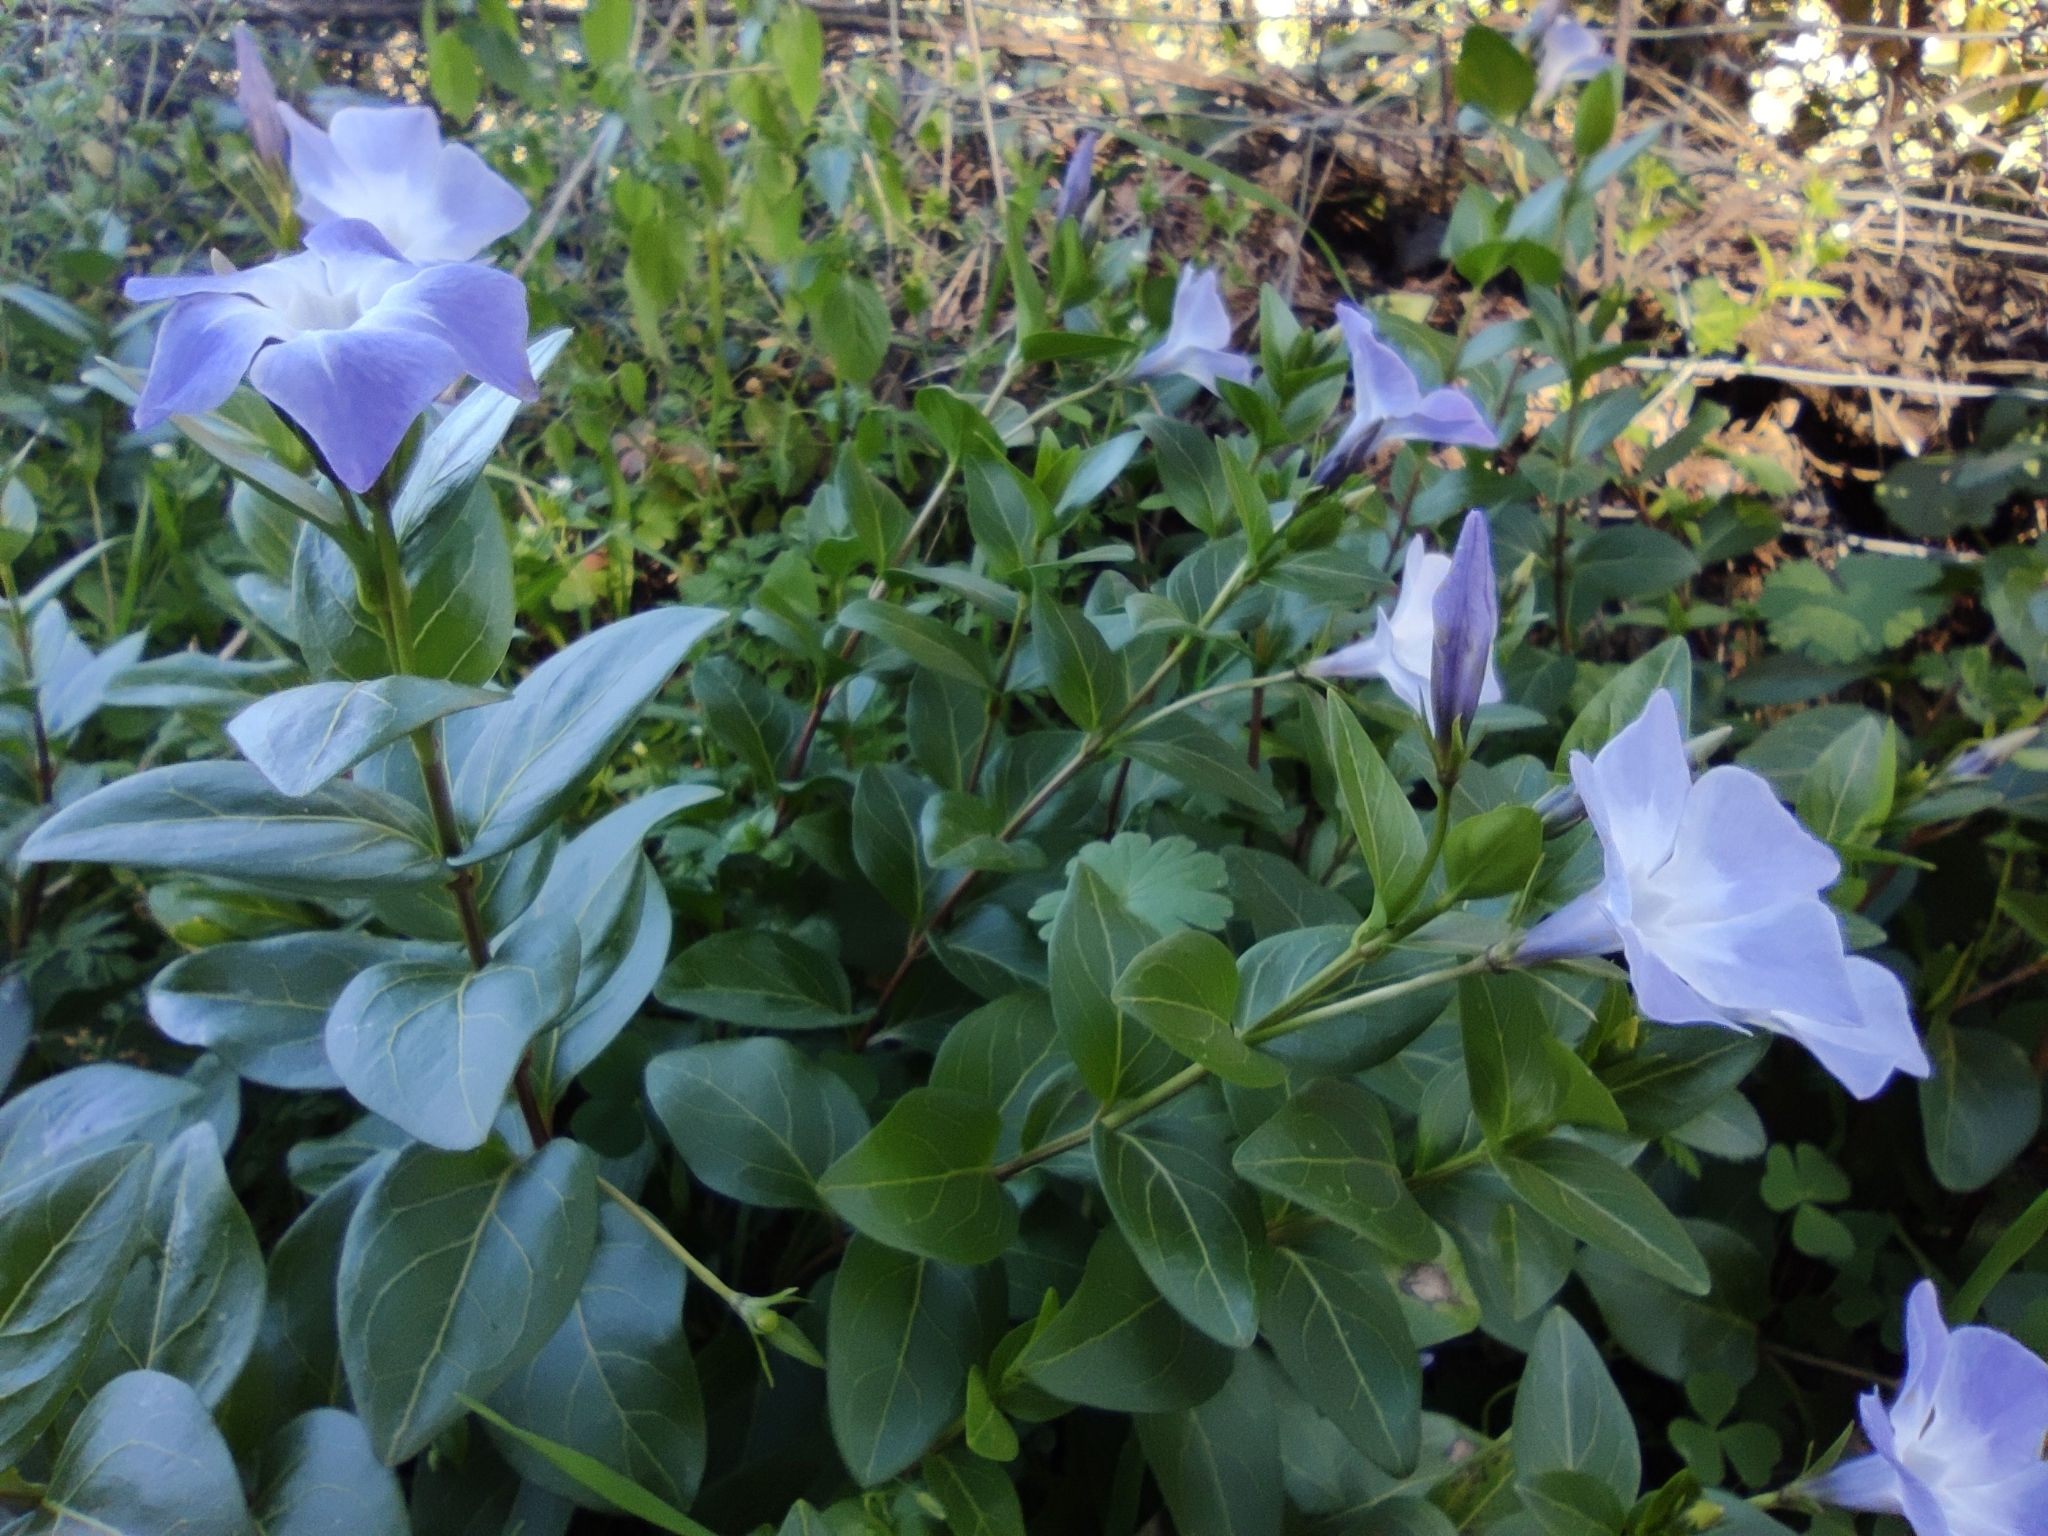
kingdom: Plantae
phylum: Tracheophyta
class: Magnoliopsida
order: Gentianales
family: Apocynaceae
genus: Vinca
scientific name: Vinca difformis
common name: Intermediate periwinkle
